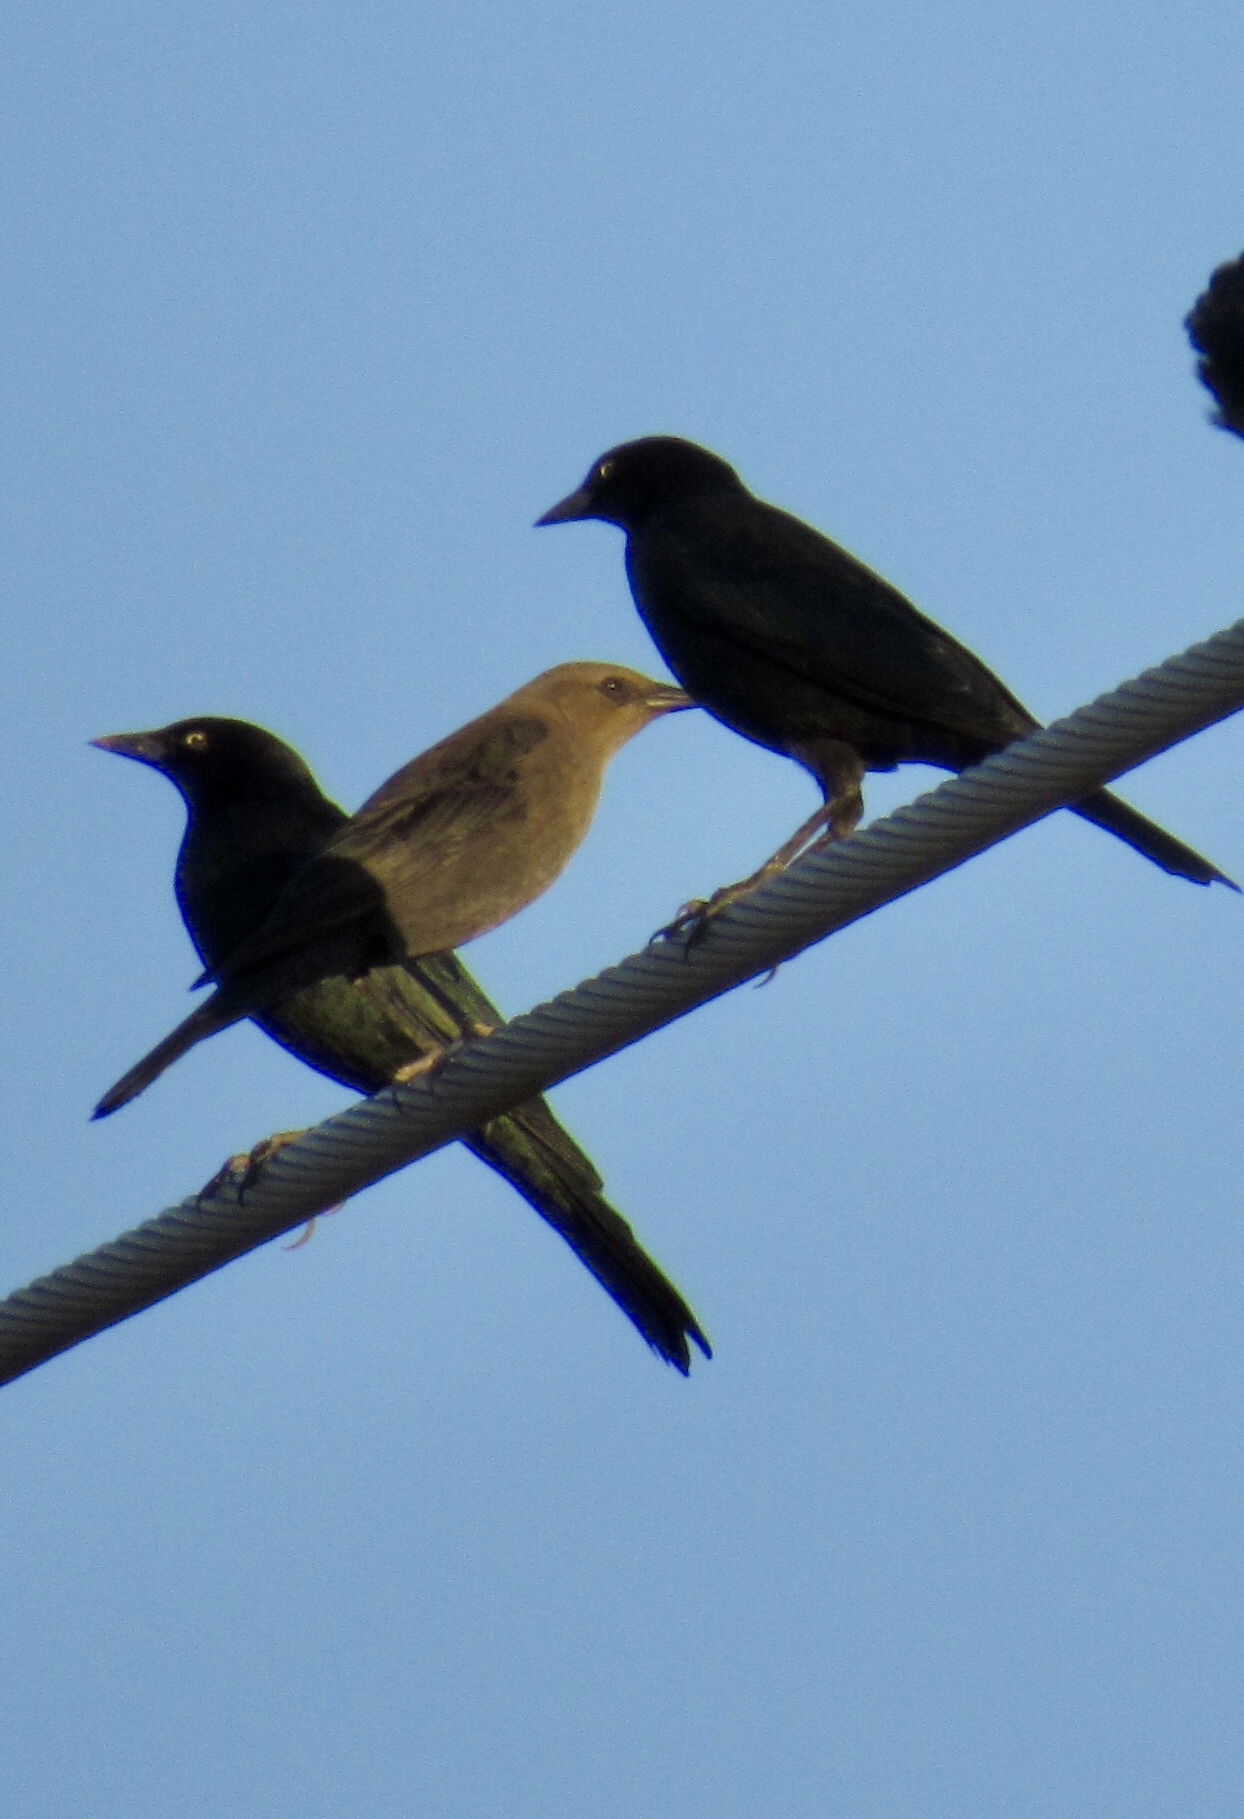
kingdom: Animalia
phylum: Chordata
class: Aves
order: Passeriformes
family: Icteridae
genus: Euphagus
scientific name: Euphagus cyanocephalus
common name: Brewer's blackbird
